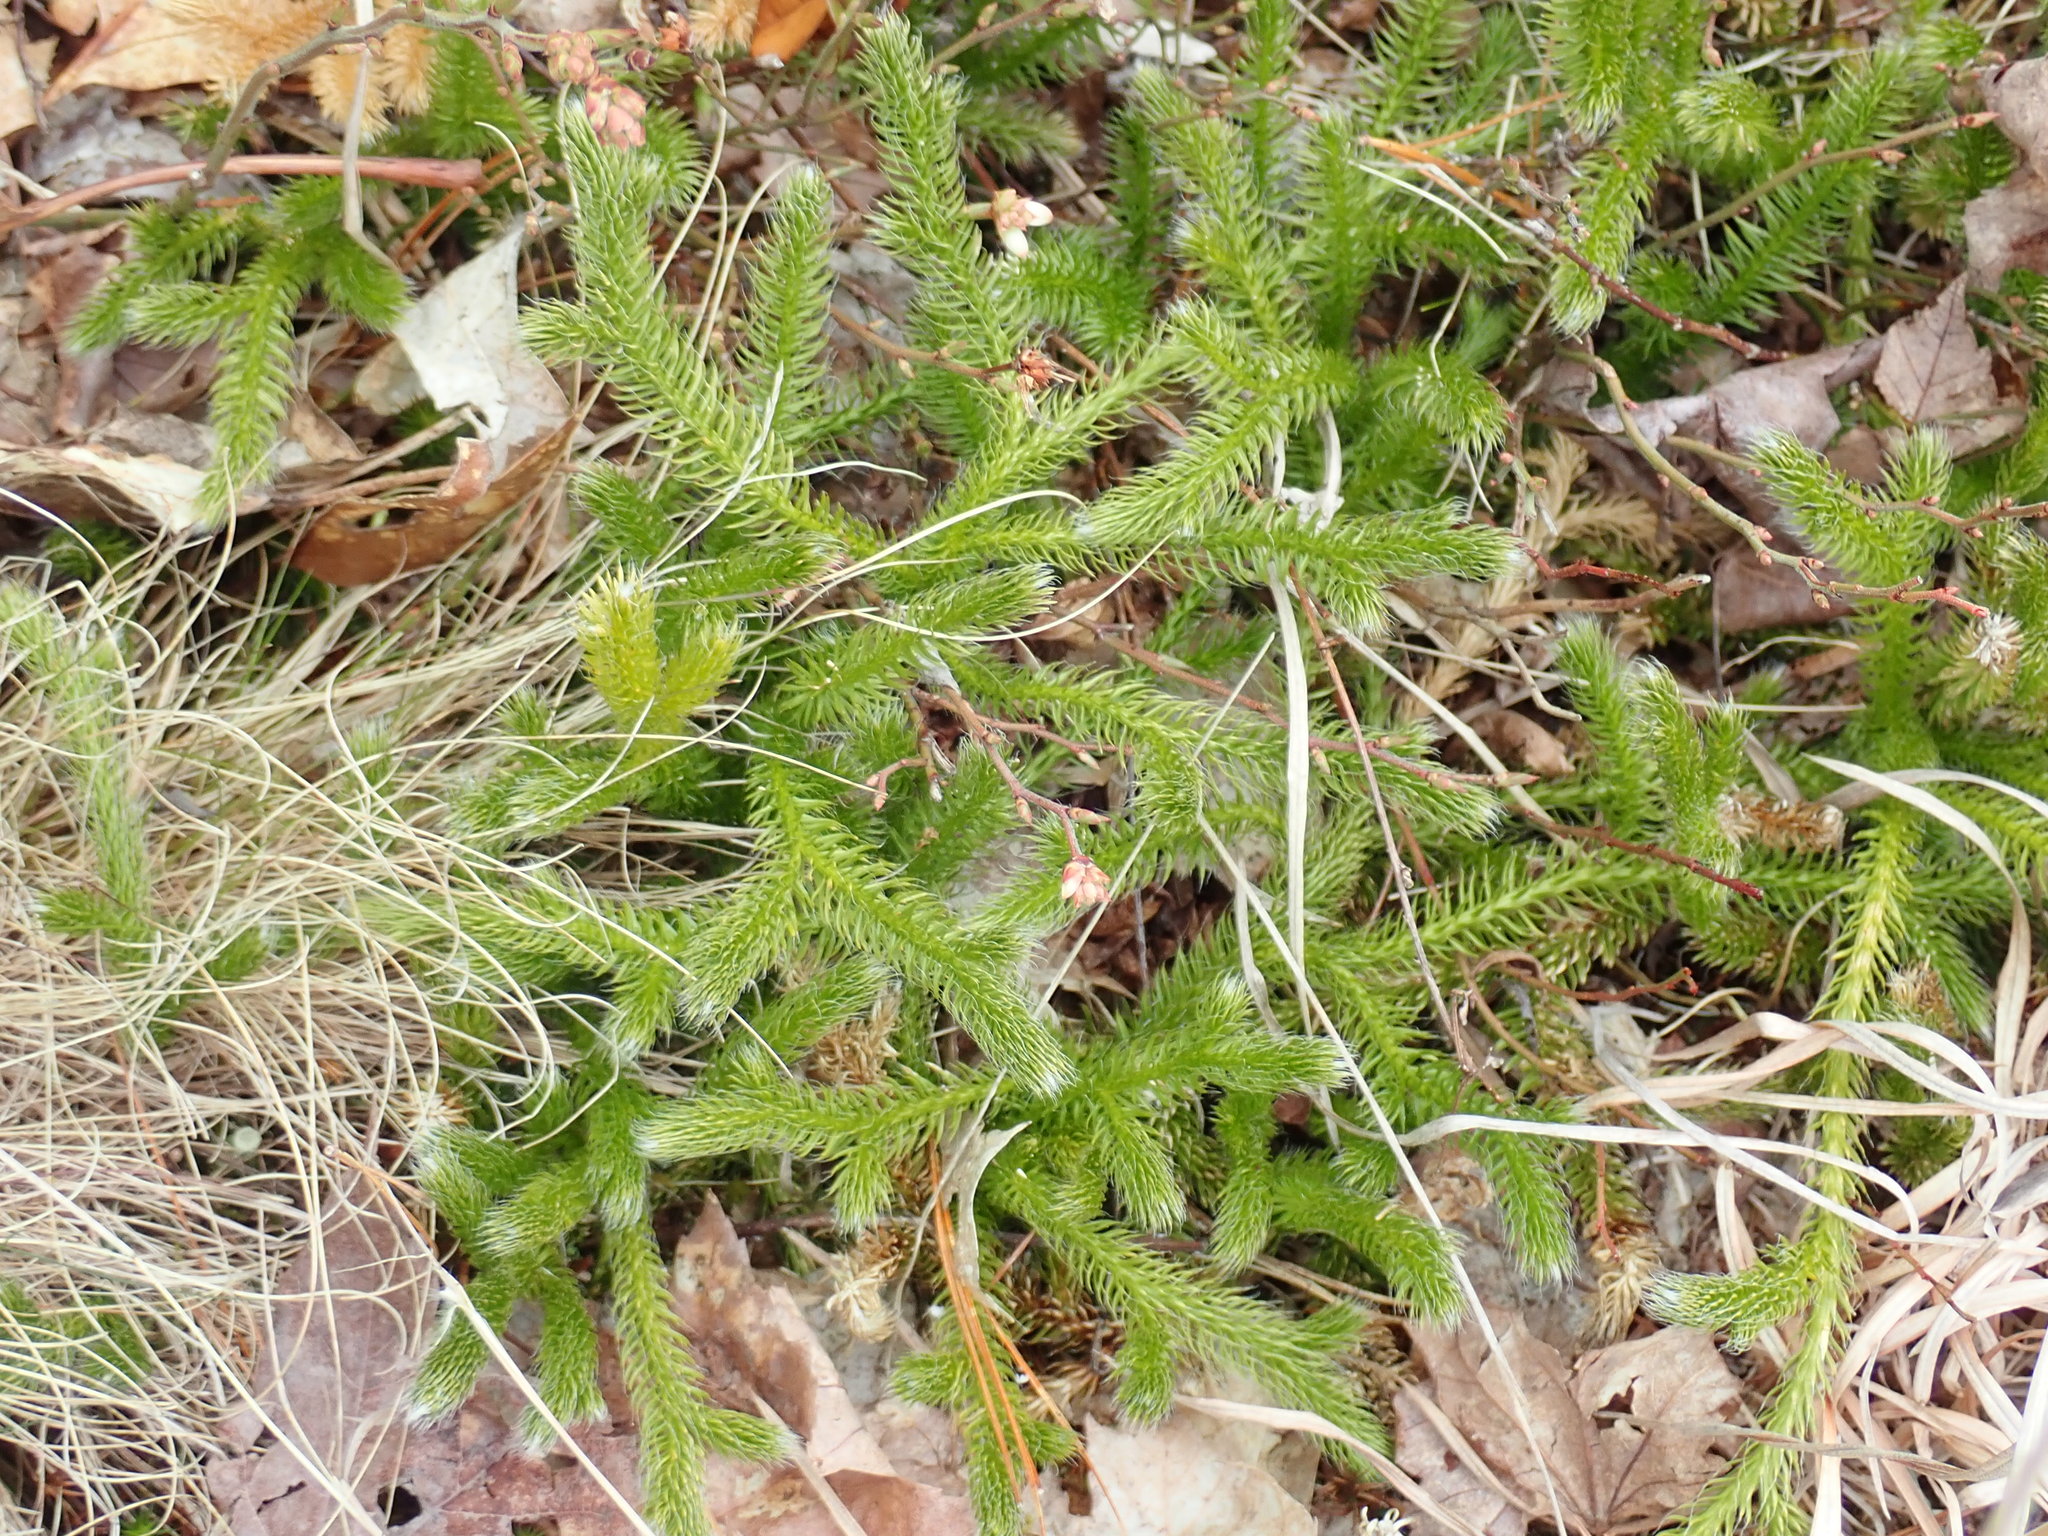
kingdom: Plantae
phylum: Tracheophyta
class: Lycopodiopsida
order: Lycopodiales
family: Lycopodiaceae
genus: Lycopodium
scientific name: Lycopodium clavatum
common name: Stag's-horn clubmoss
